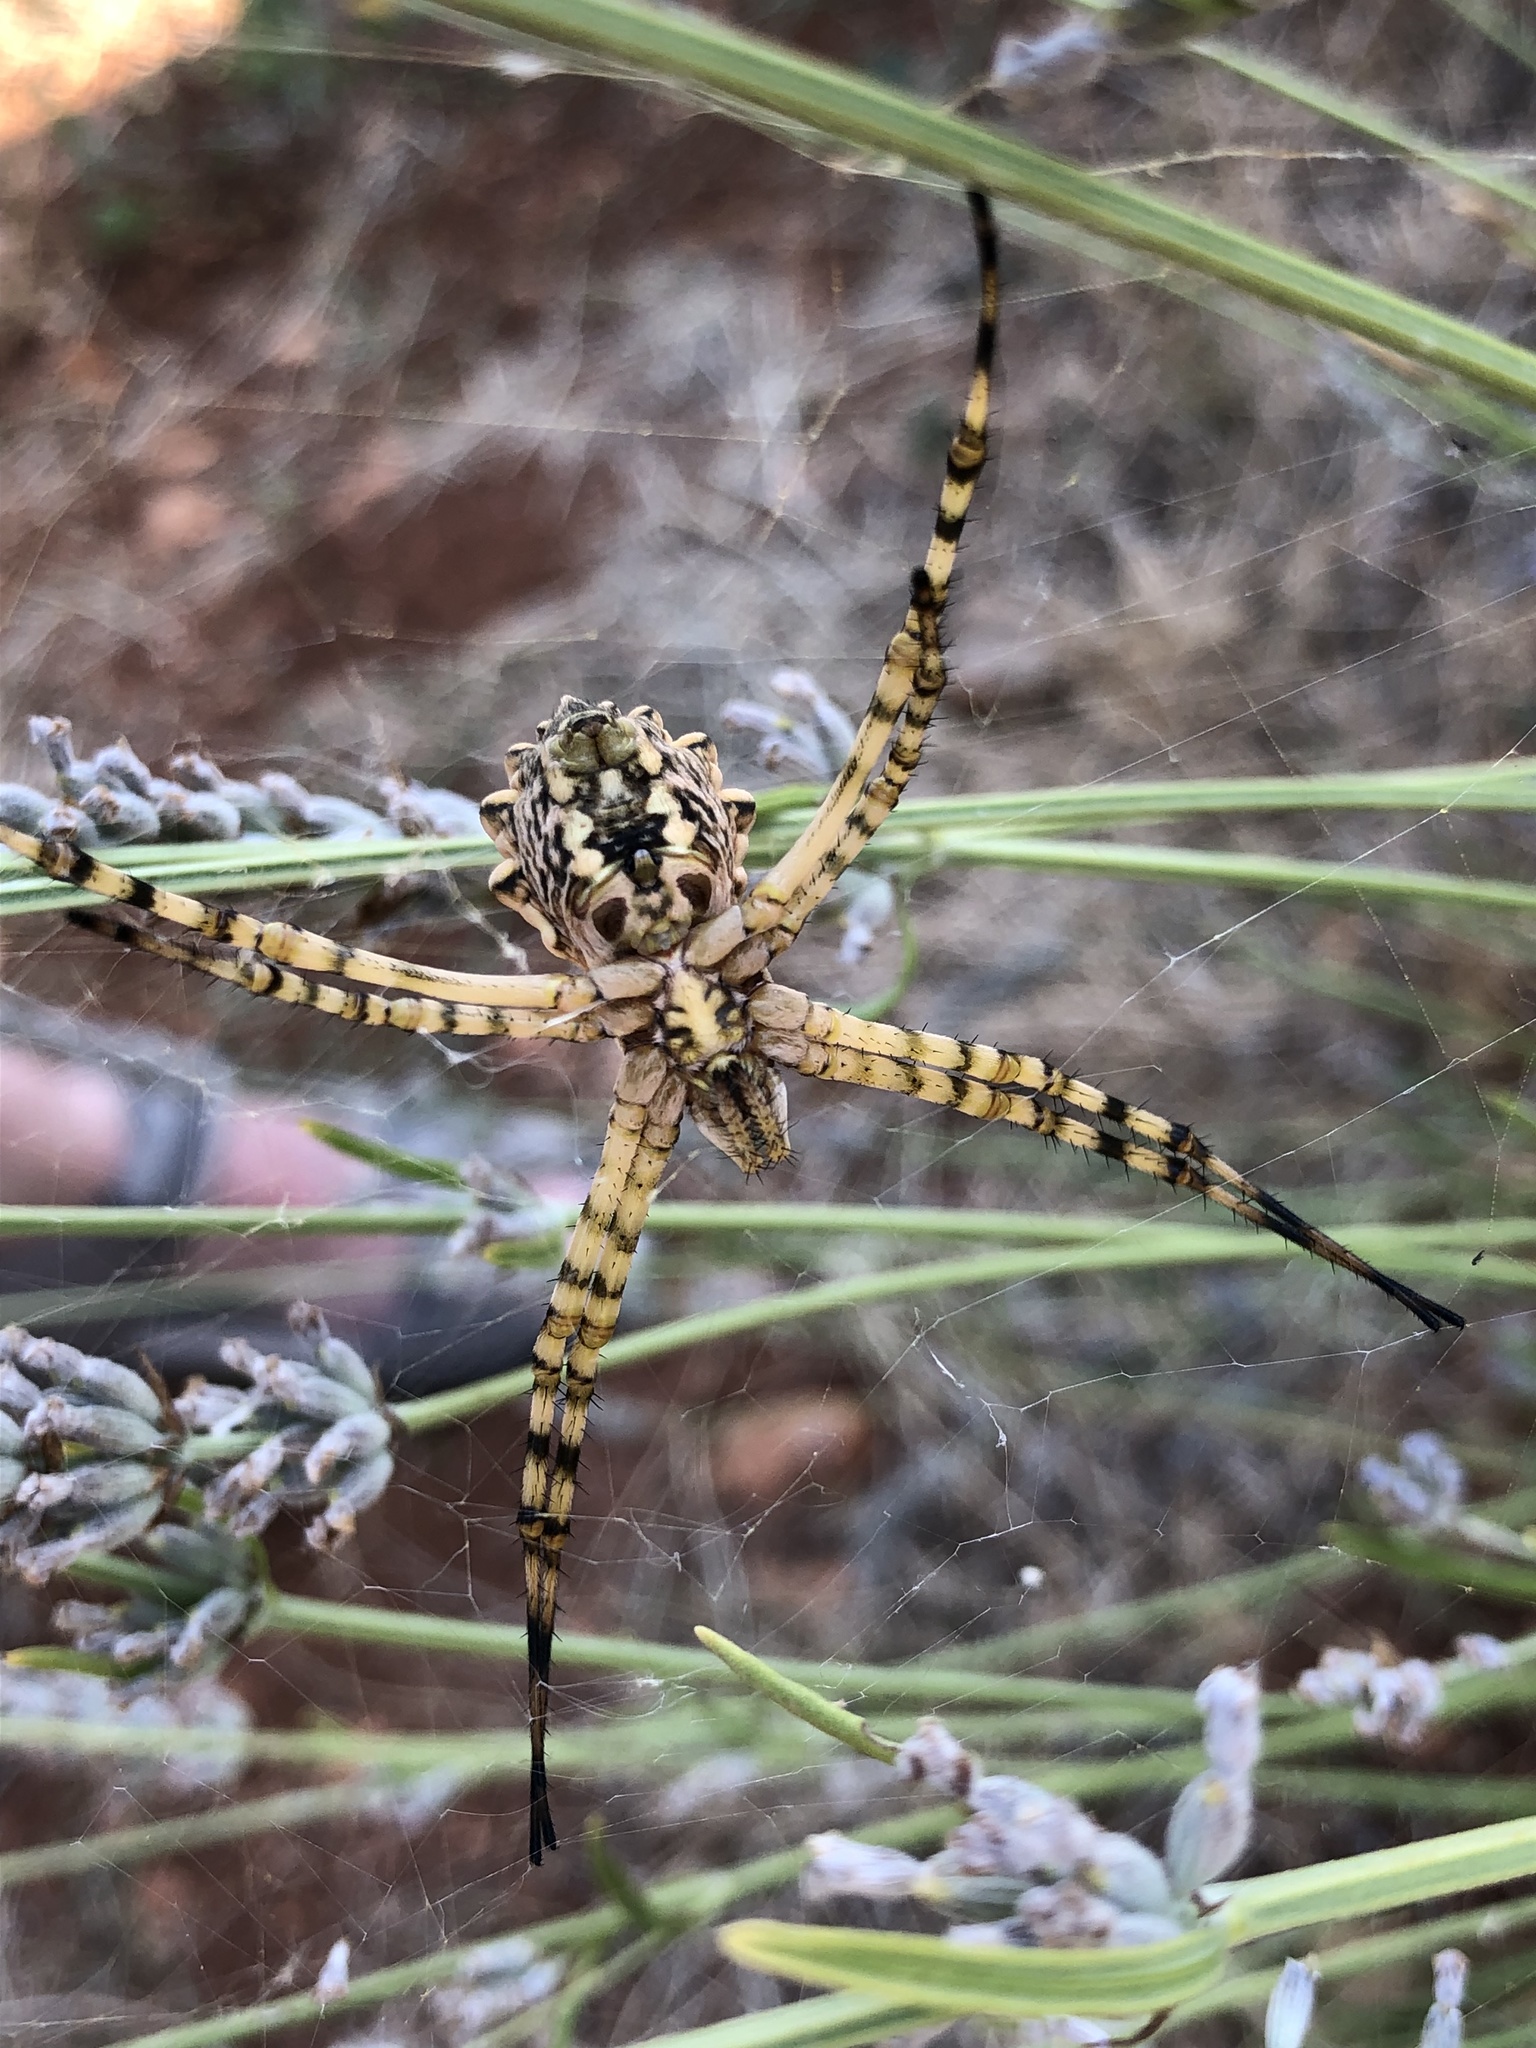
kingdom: Animalia
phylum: Arthropoda
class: Arachnida
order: Araneae
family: Araneidae
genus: Argiope
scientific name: Argiope lobata
